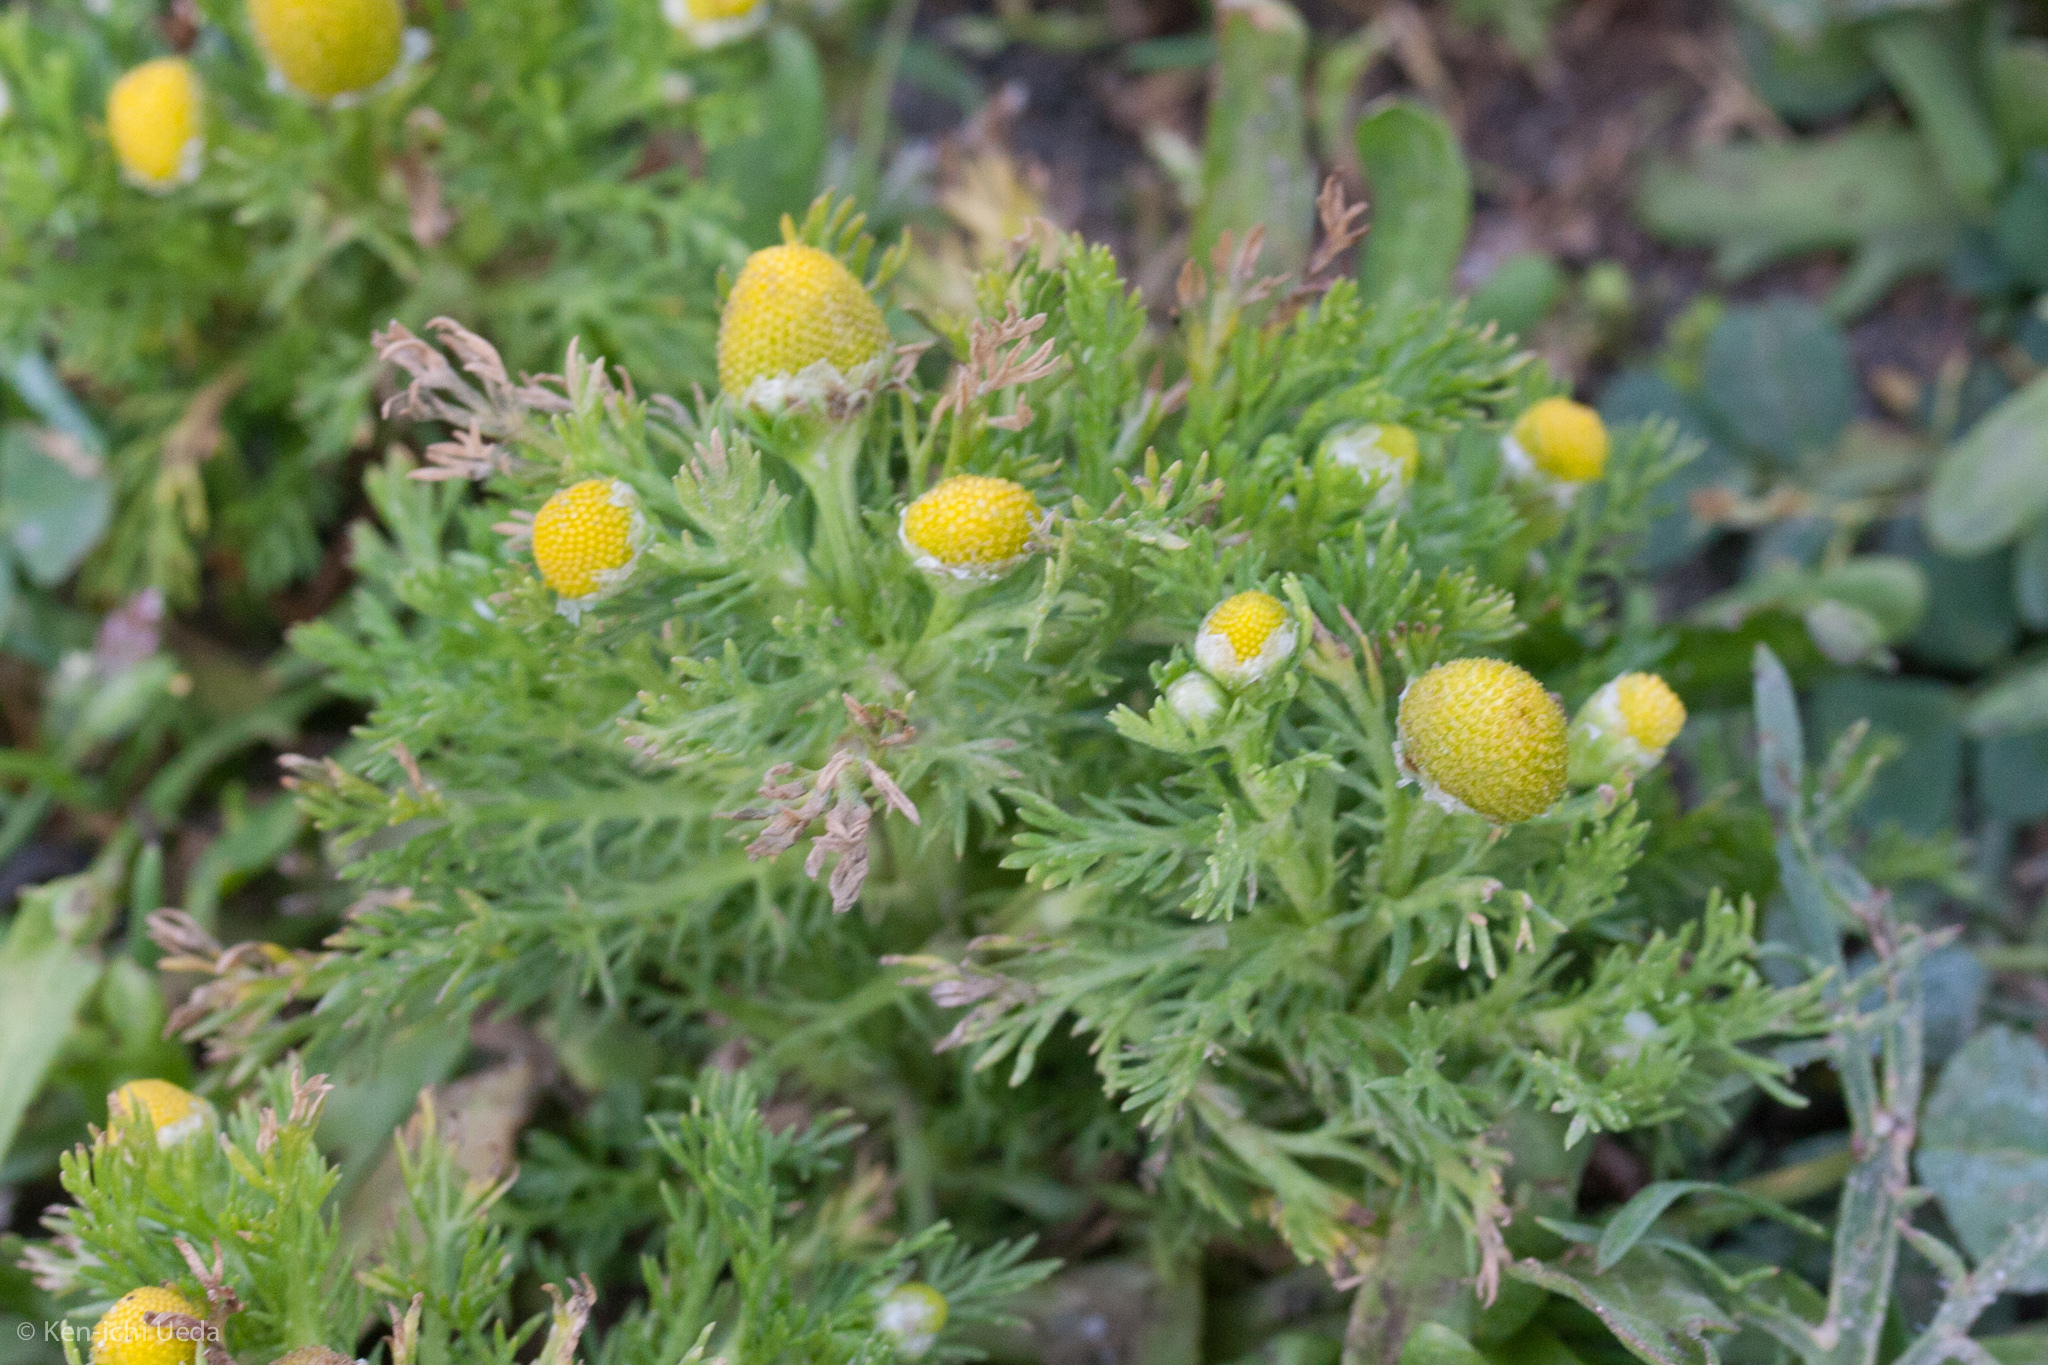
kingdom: Plantae
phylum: Tracheophyta
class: Magnoliopsida
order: Asterales
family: Asteraceae
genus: Matricaria
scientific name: Matricaria discoidea
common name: Disc mayweed
